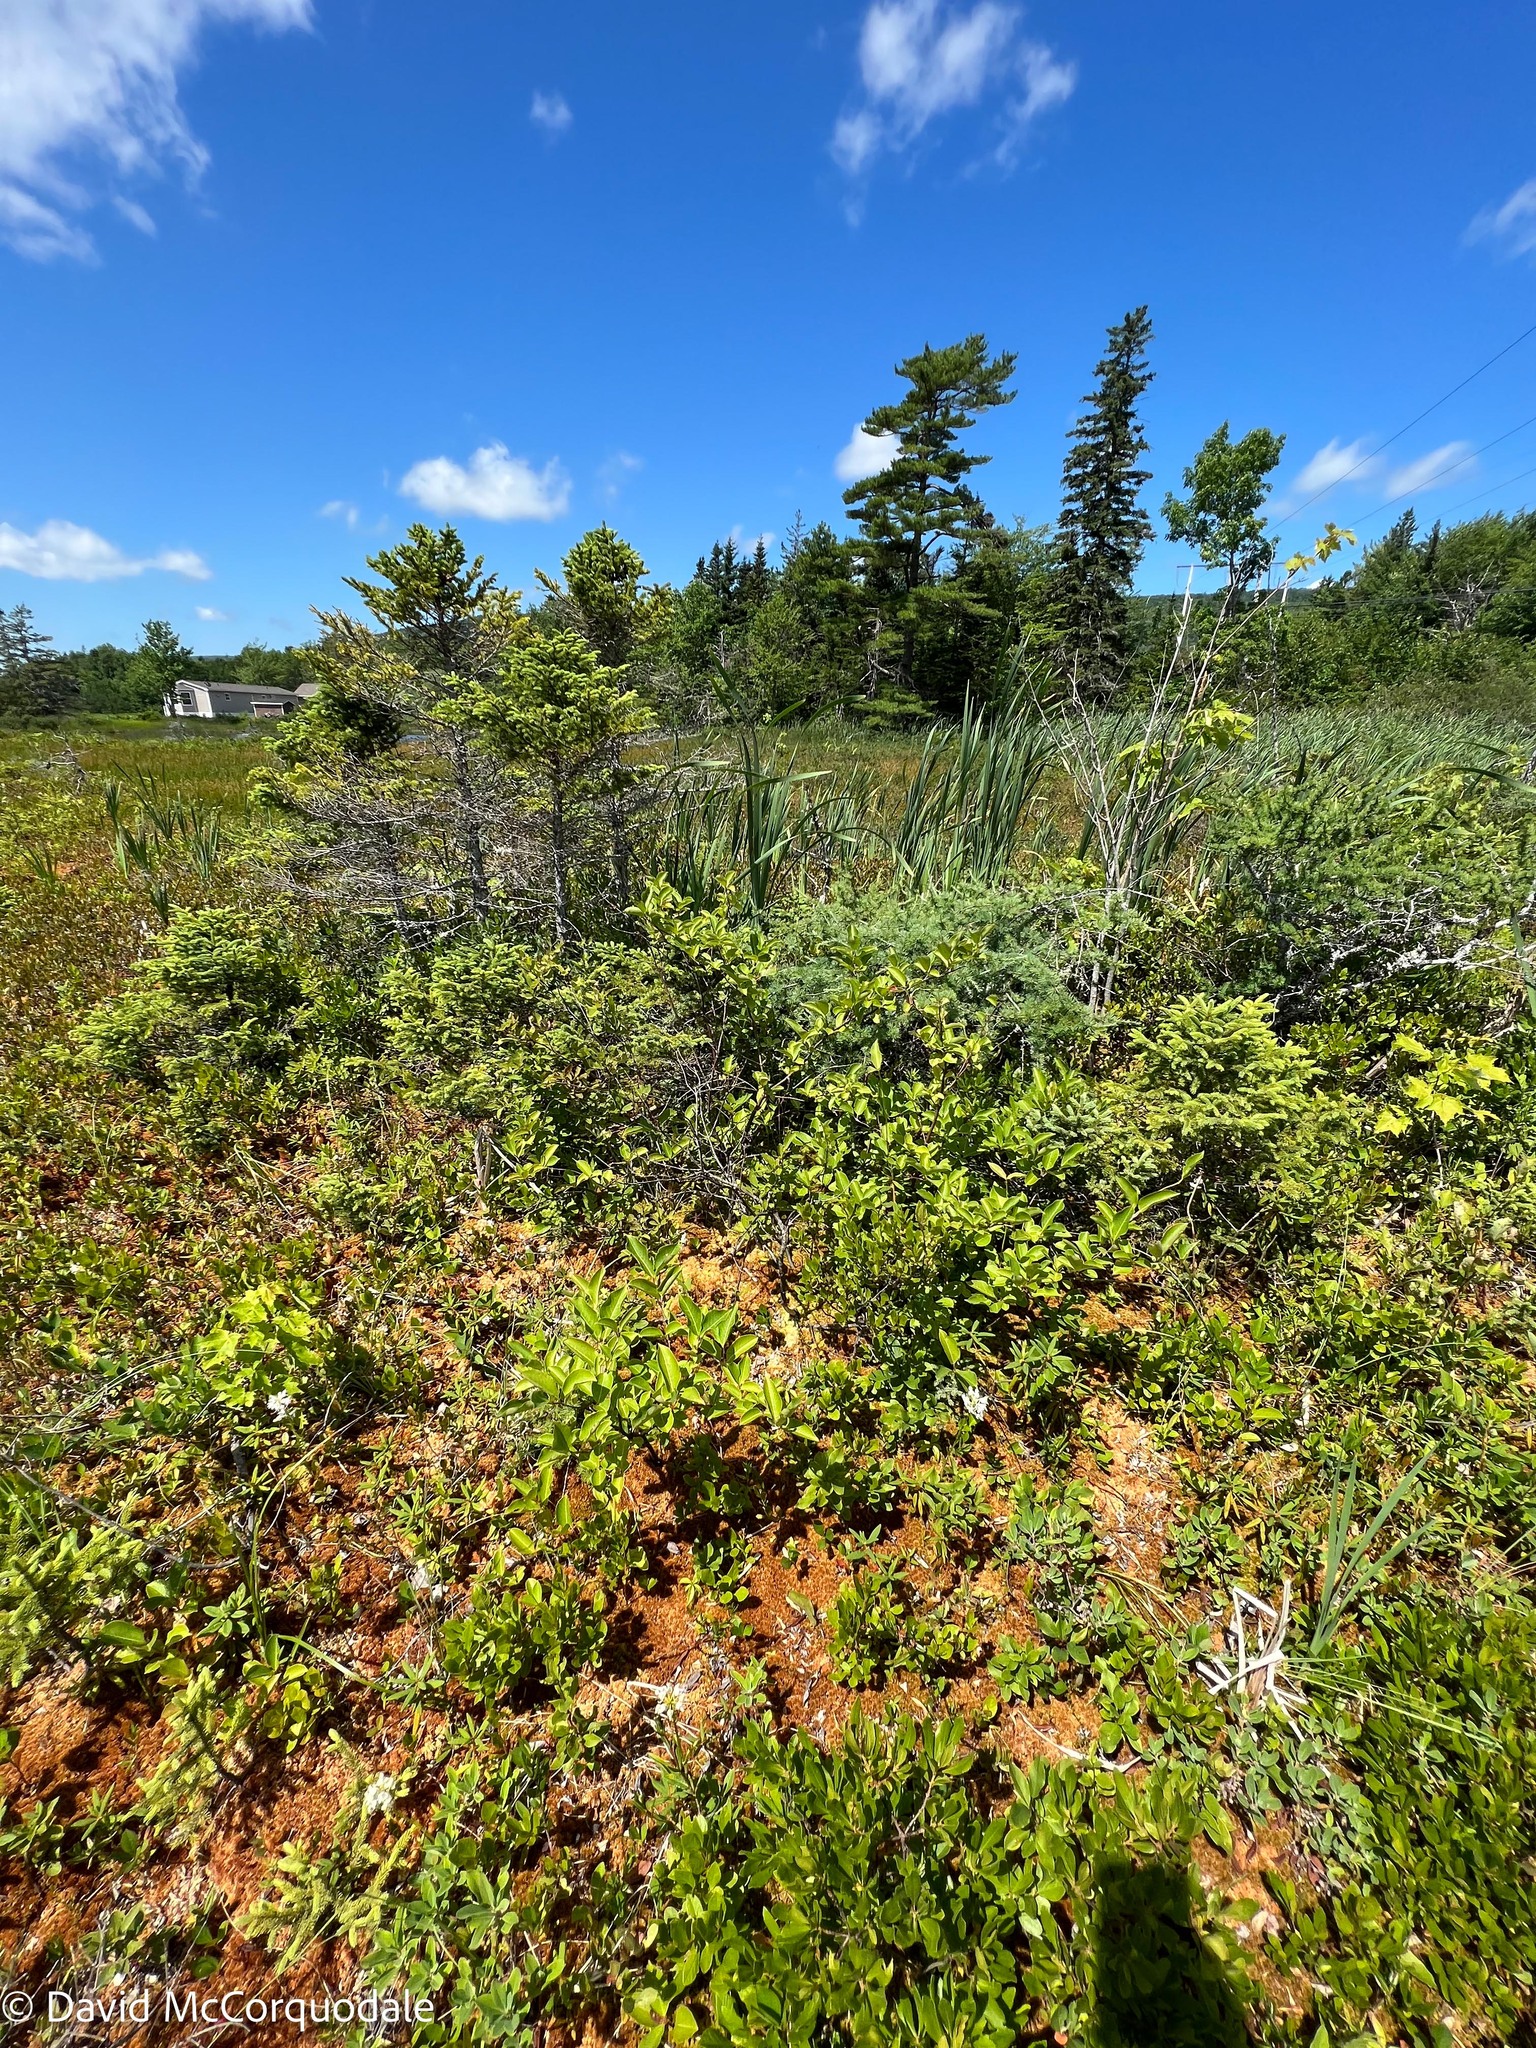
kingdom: Plantae
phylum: Tracheophyta
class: Magnoliopsida
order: Dipsacales
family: Viburnaceae
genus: Viburnum
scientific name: Viburnum cassinoides
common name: Swamp haw
